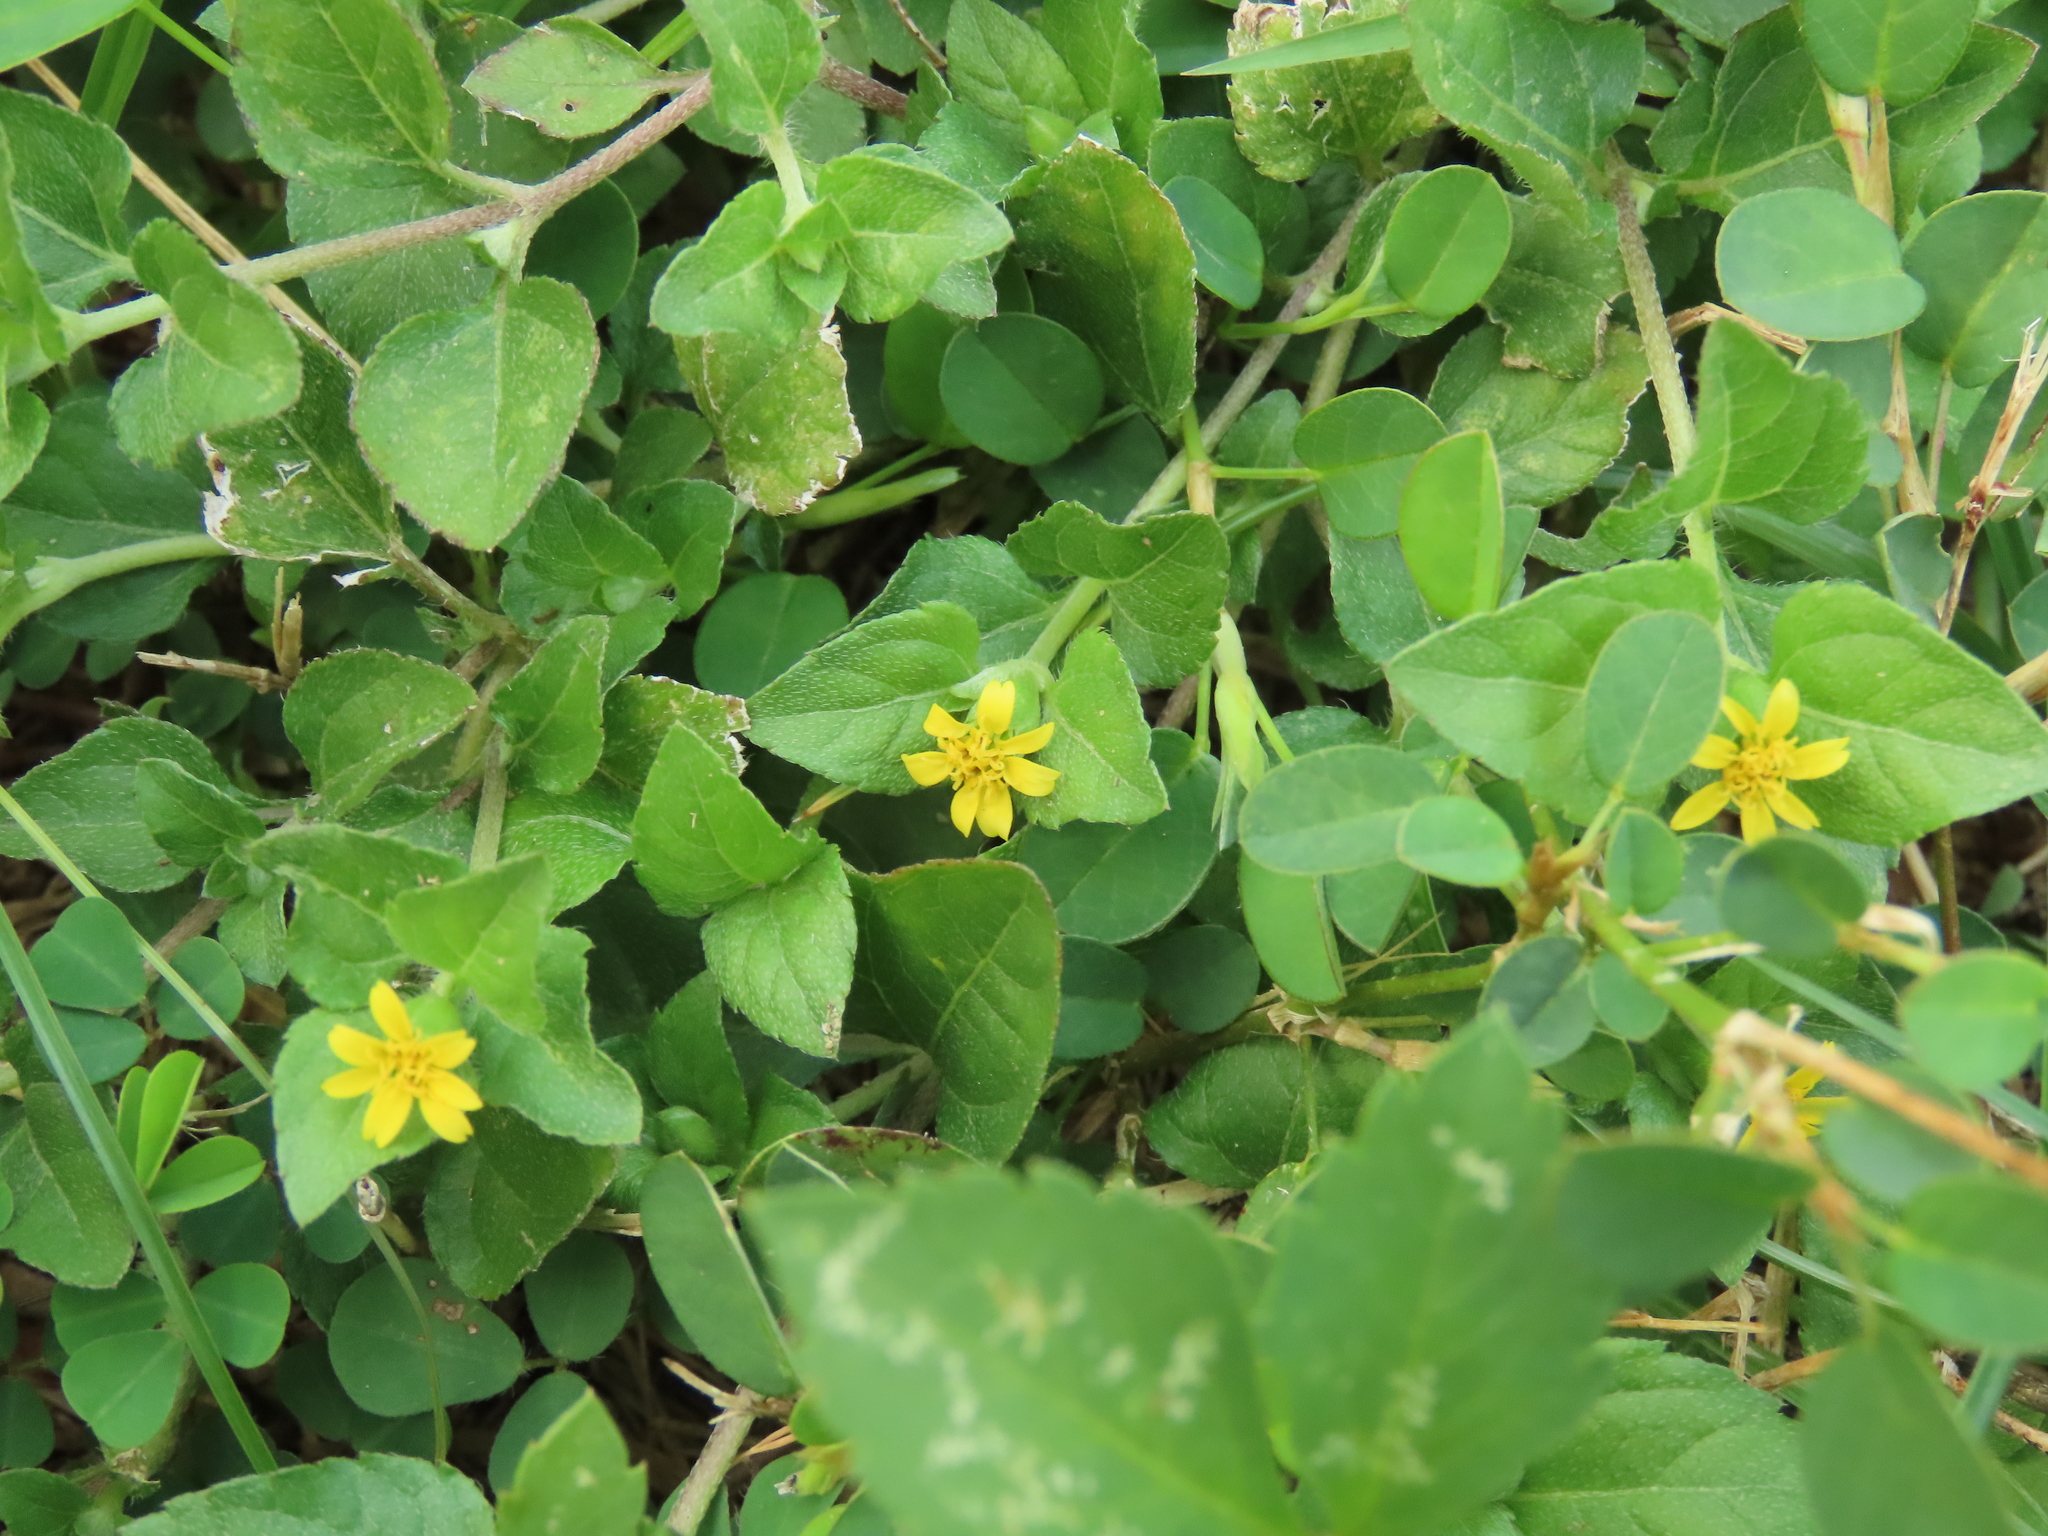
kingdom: Plantae
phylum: Tracheophyta
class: Magnoliopsida
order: Asterales
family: Asteraceae
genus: Calyptocarpus
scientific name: Calyptocarpus vialis
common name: Straggler daisy
